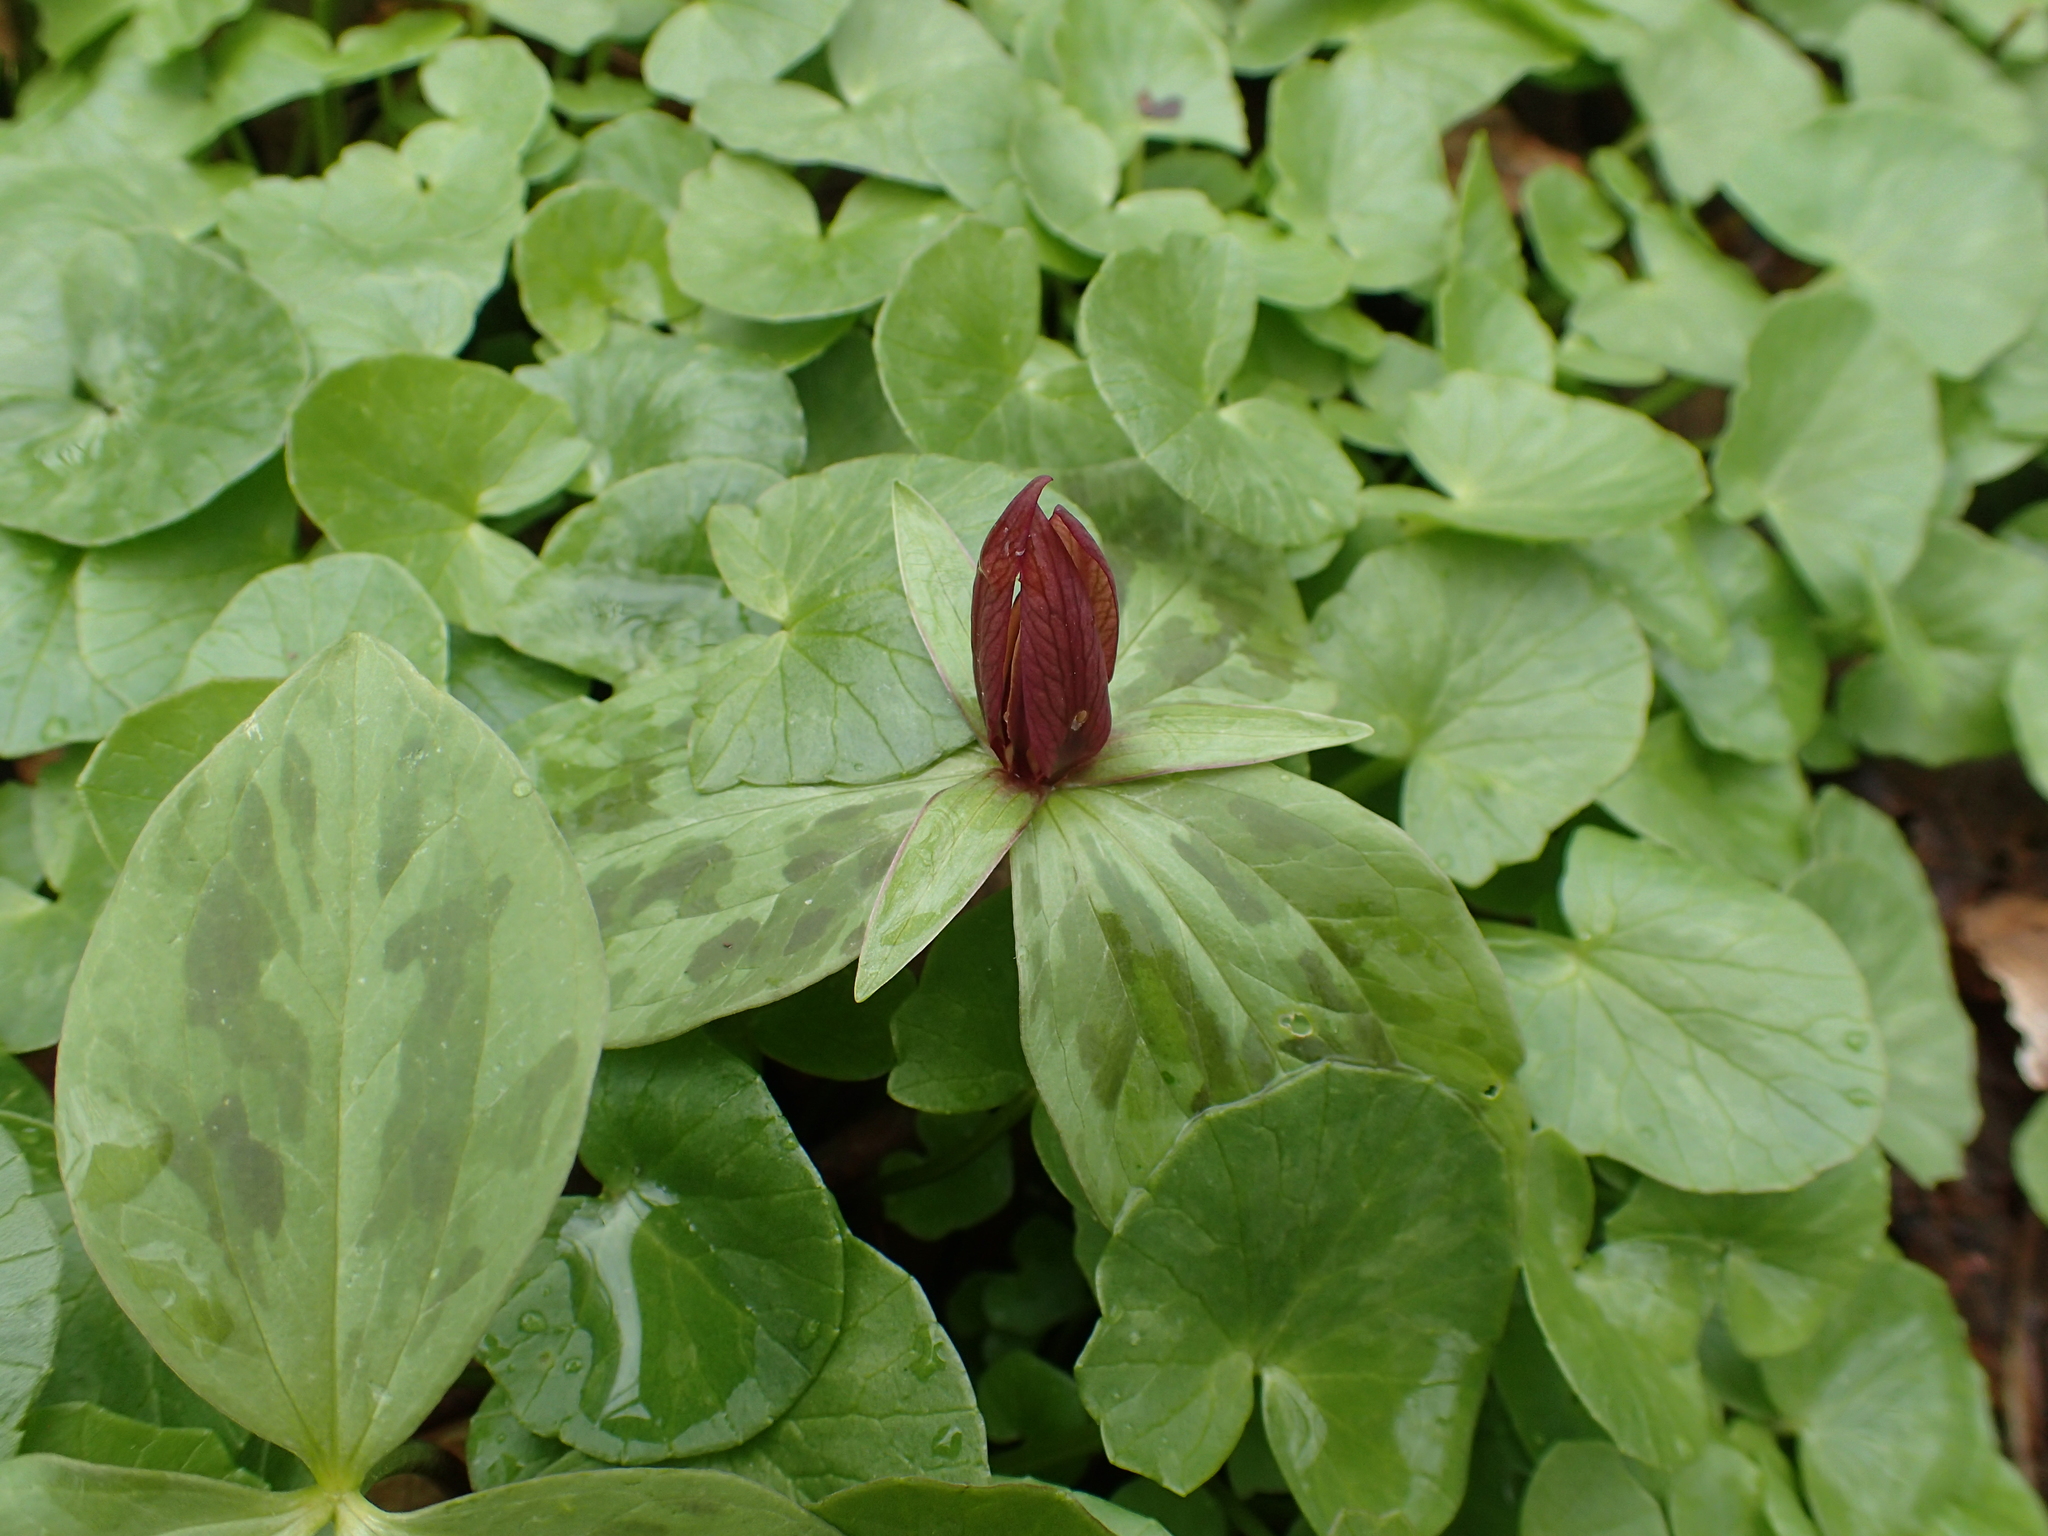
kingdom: Plantae
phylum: Tracheophyta
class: Liliopsida
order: Liliales
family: Melanthiaceae
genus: Trillium
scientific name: Trillium sessile
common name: Sessile trillium
